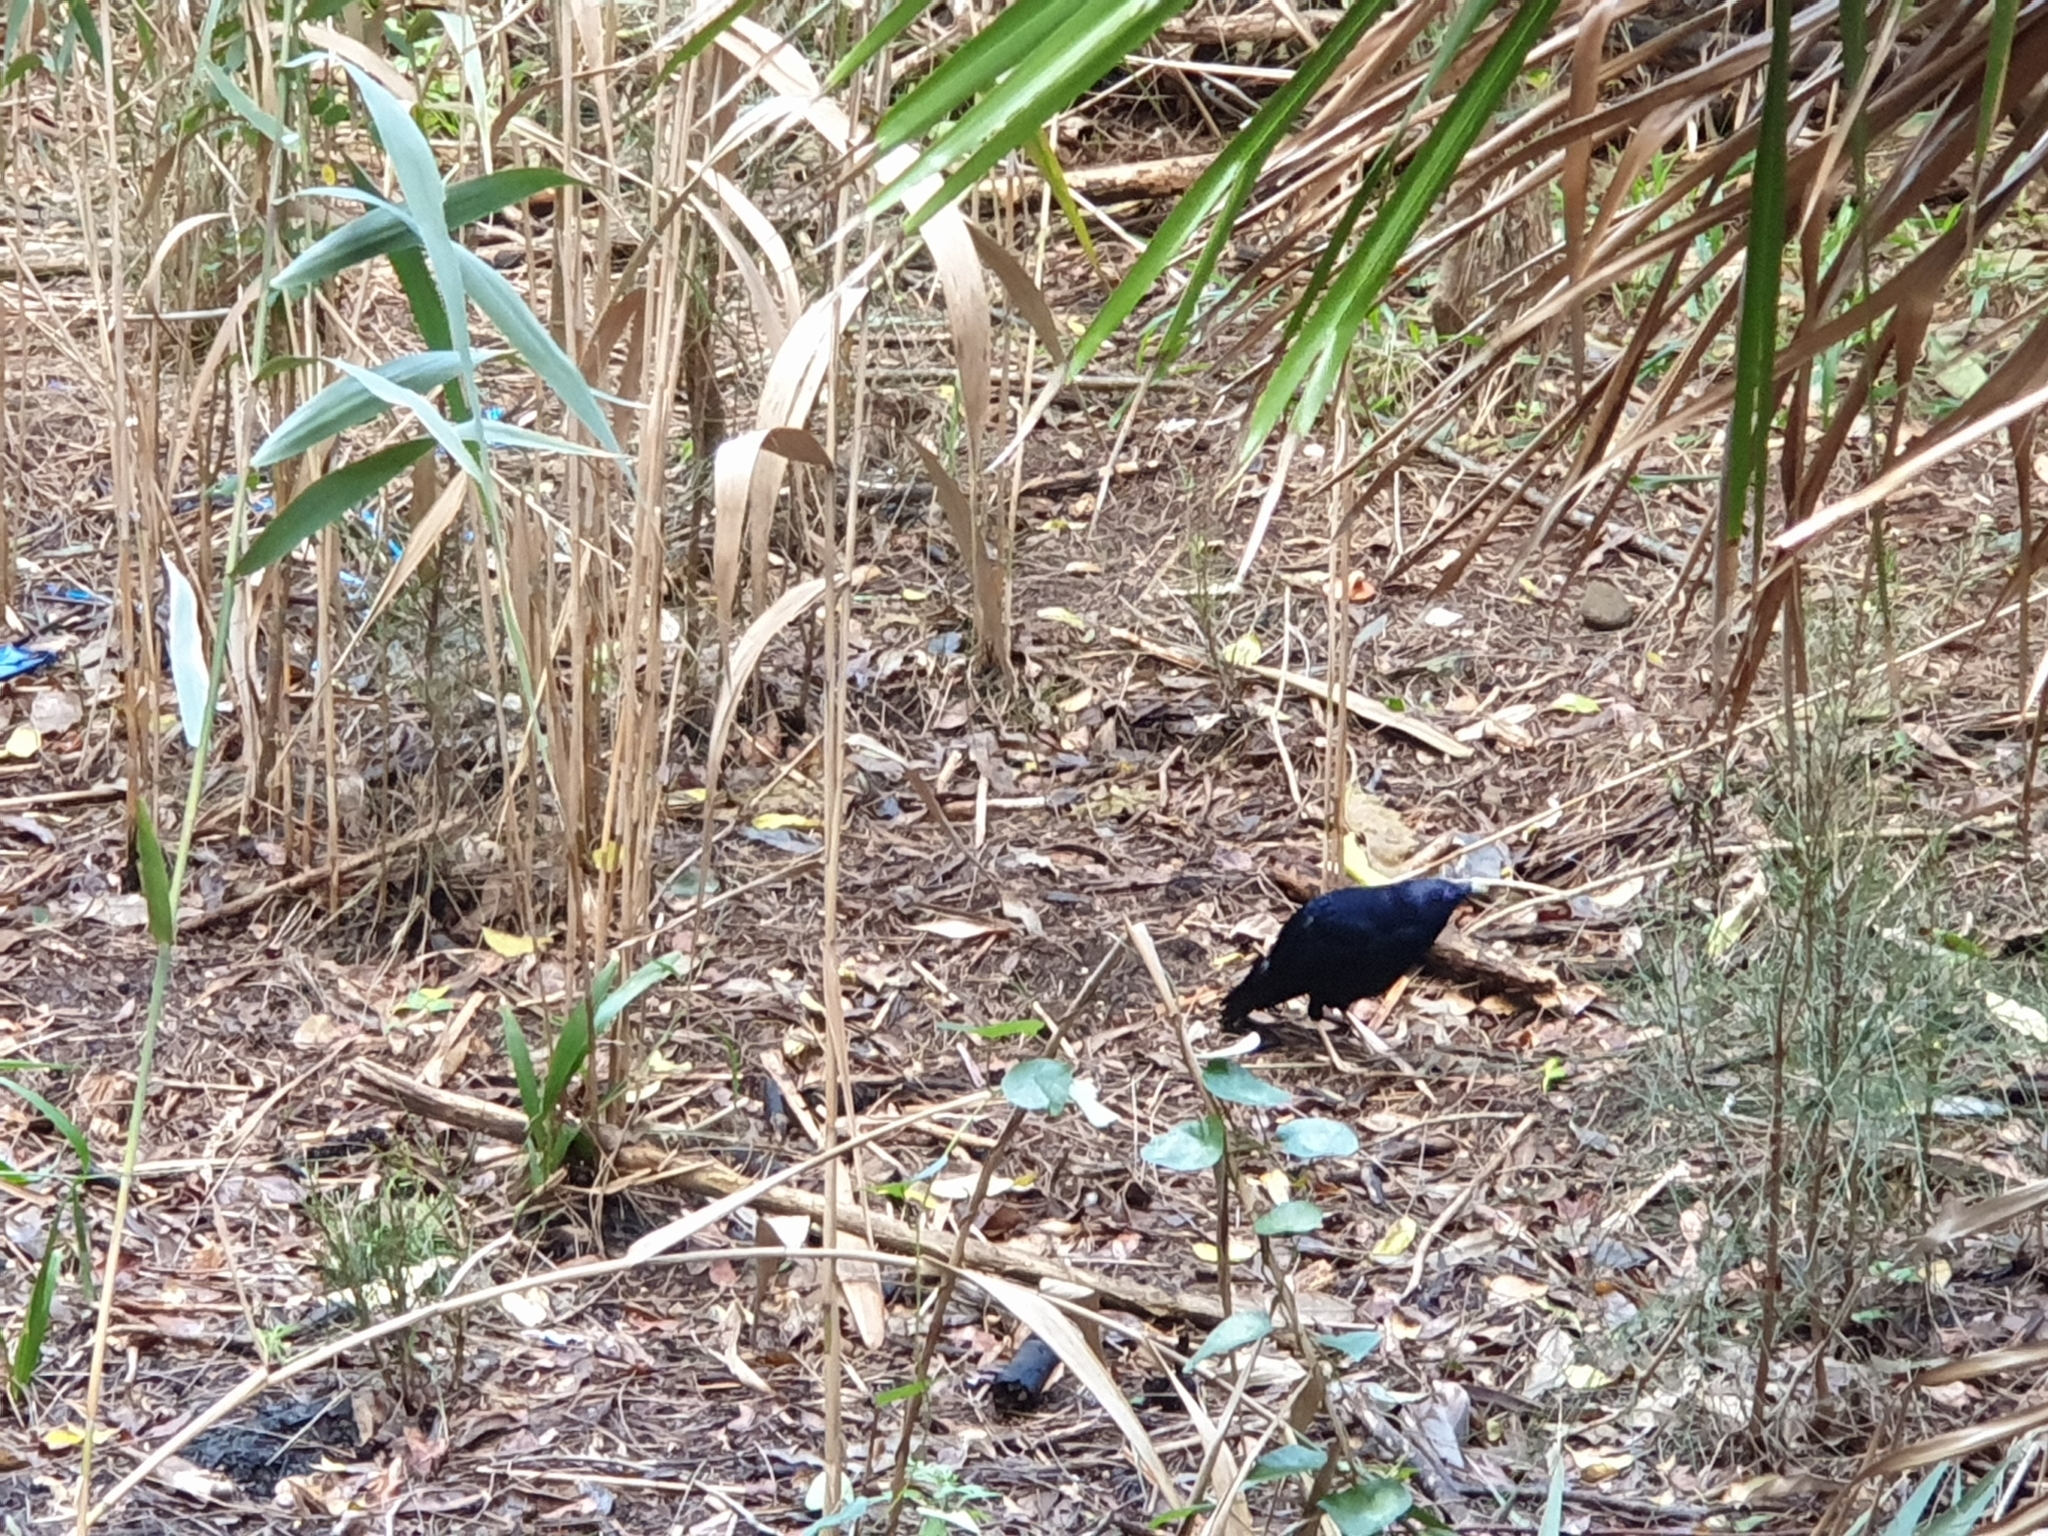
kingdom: Animalia
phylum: Chordata
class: Aves
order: Passeriformes
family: Ptilonorhynchidae
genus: Ptilonorhynchus
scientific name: Ptilonorhynchus violaceus
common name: Satin bowerbird
